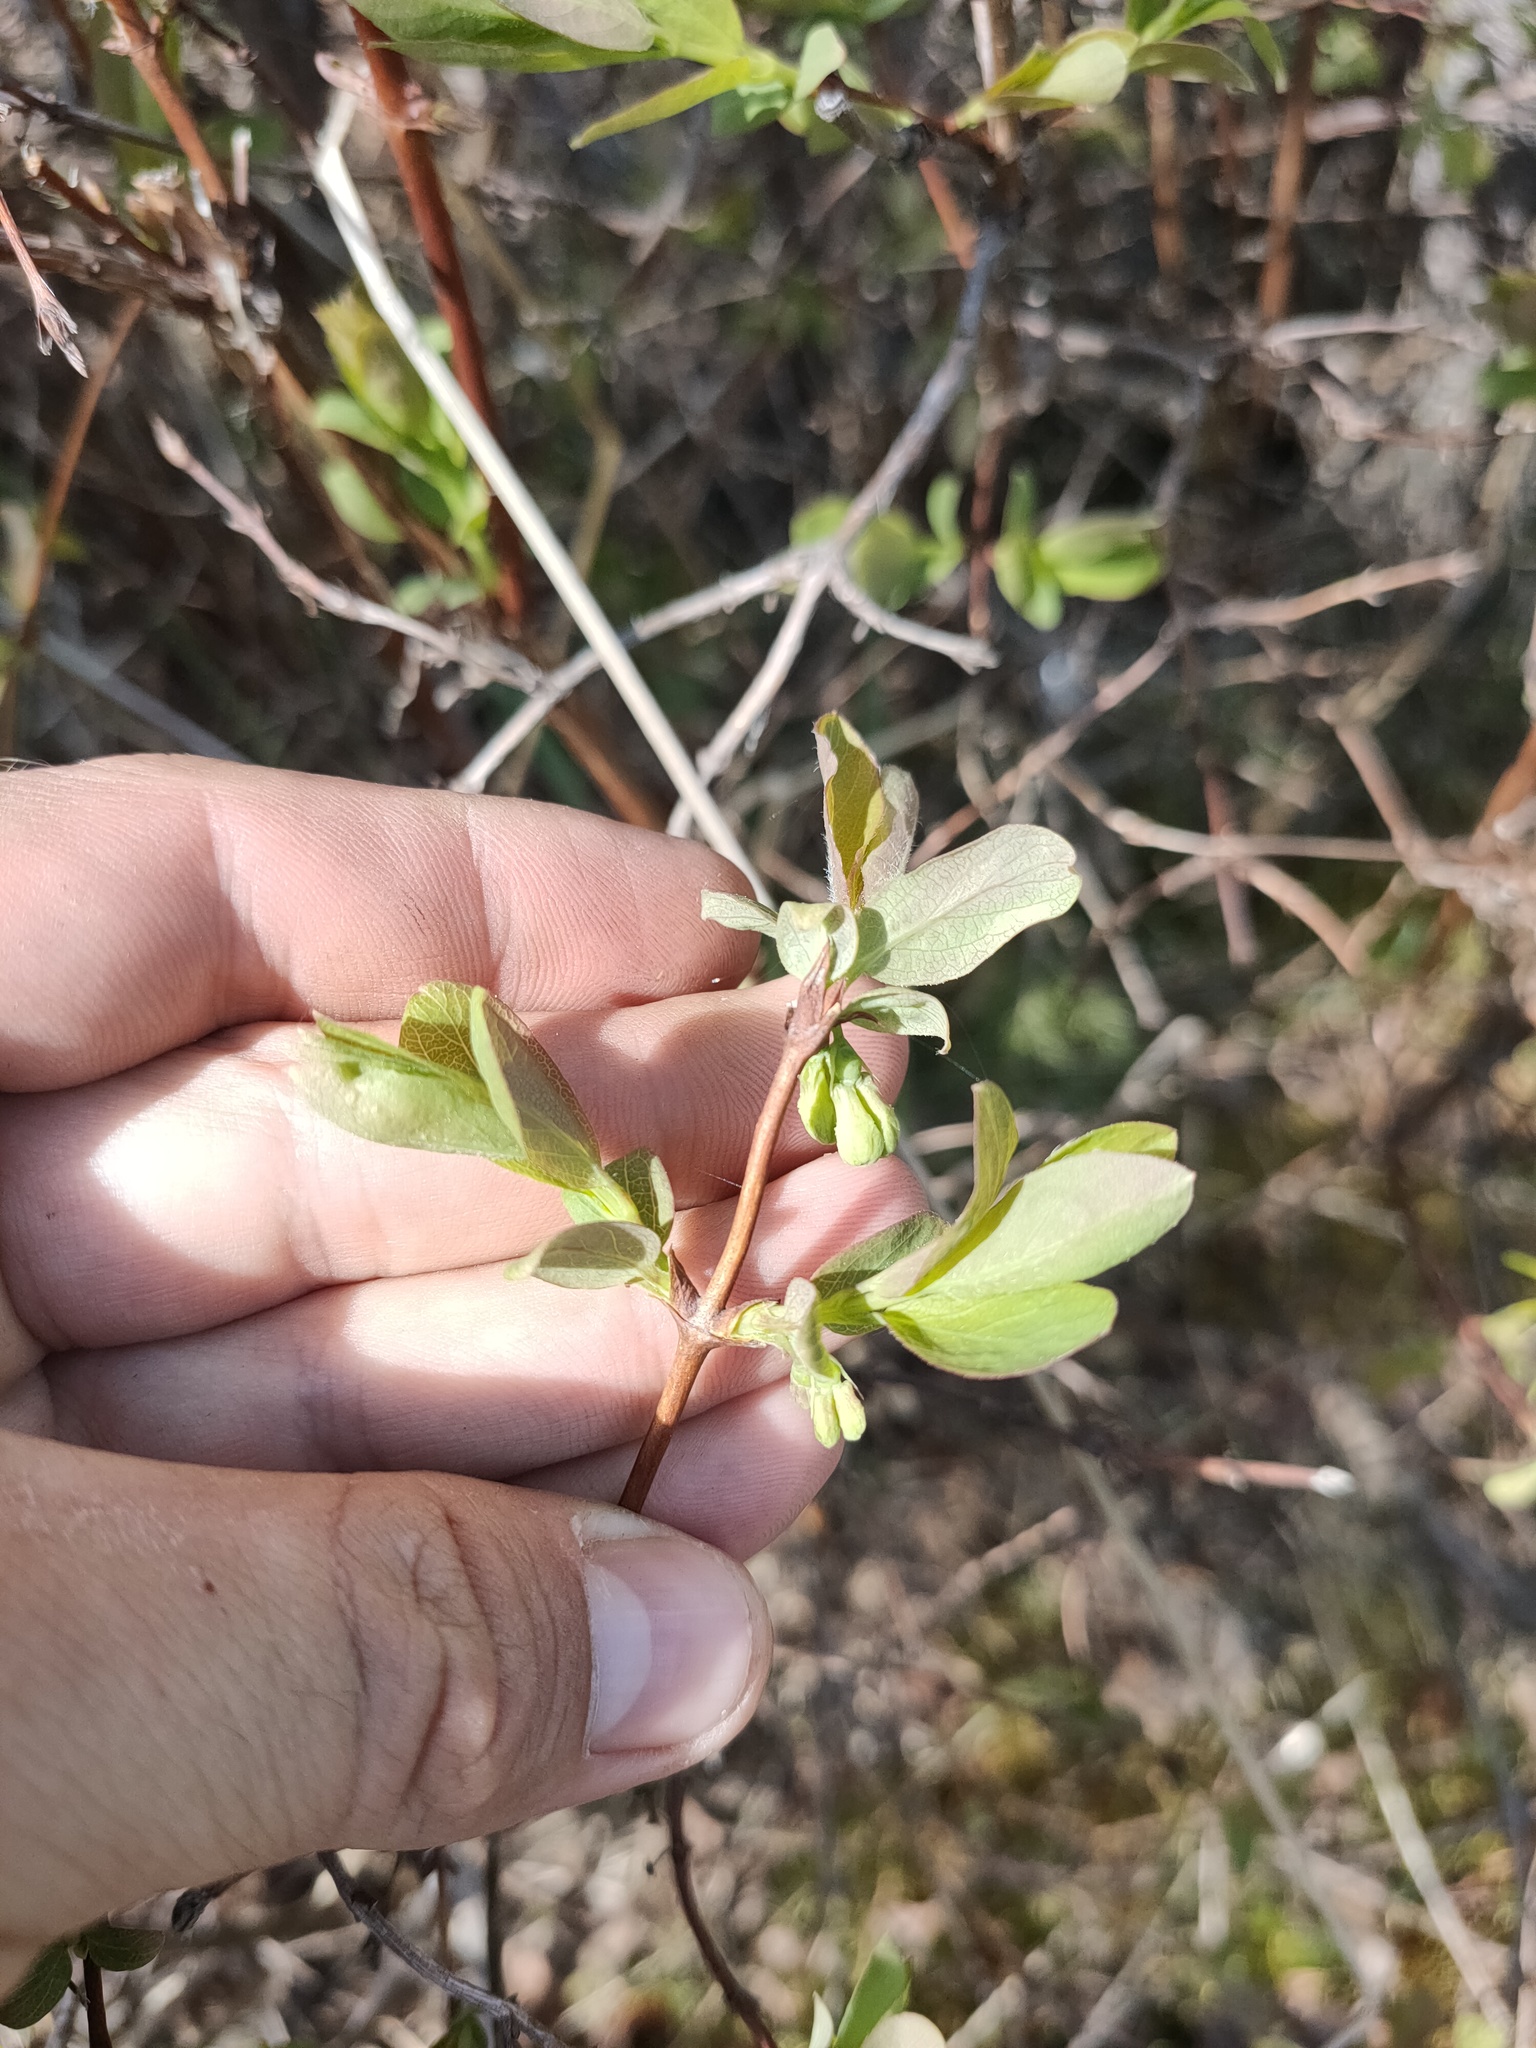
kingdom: Plantae
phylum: Tracheophyta
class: Magnoliopsida
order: Dipsacales
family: Caprifoliaceae
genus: Lonicera
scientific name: Lonicera caerulea
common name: Blue honeysuckle
